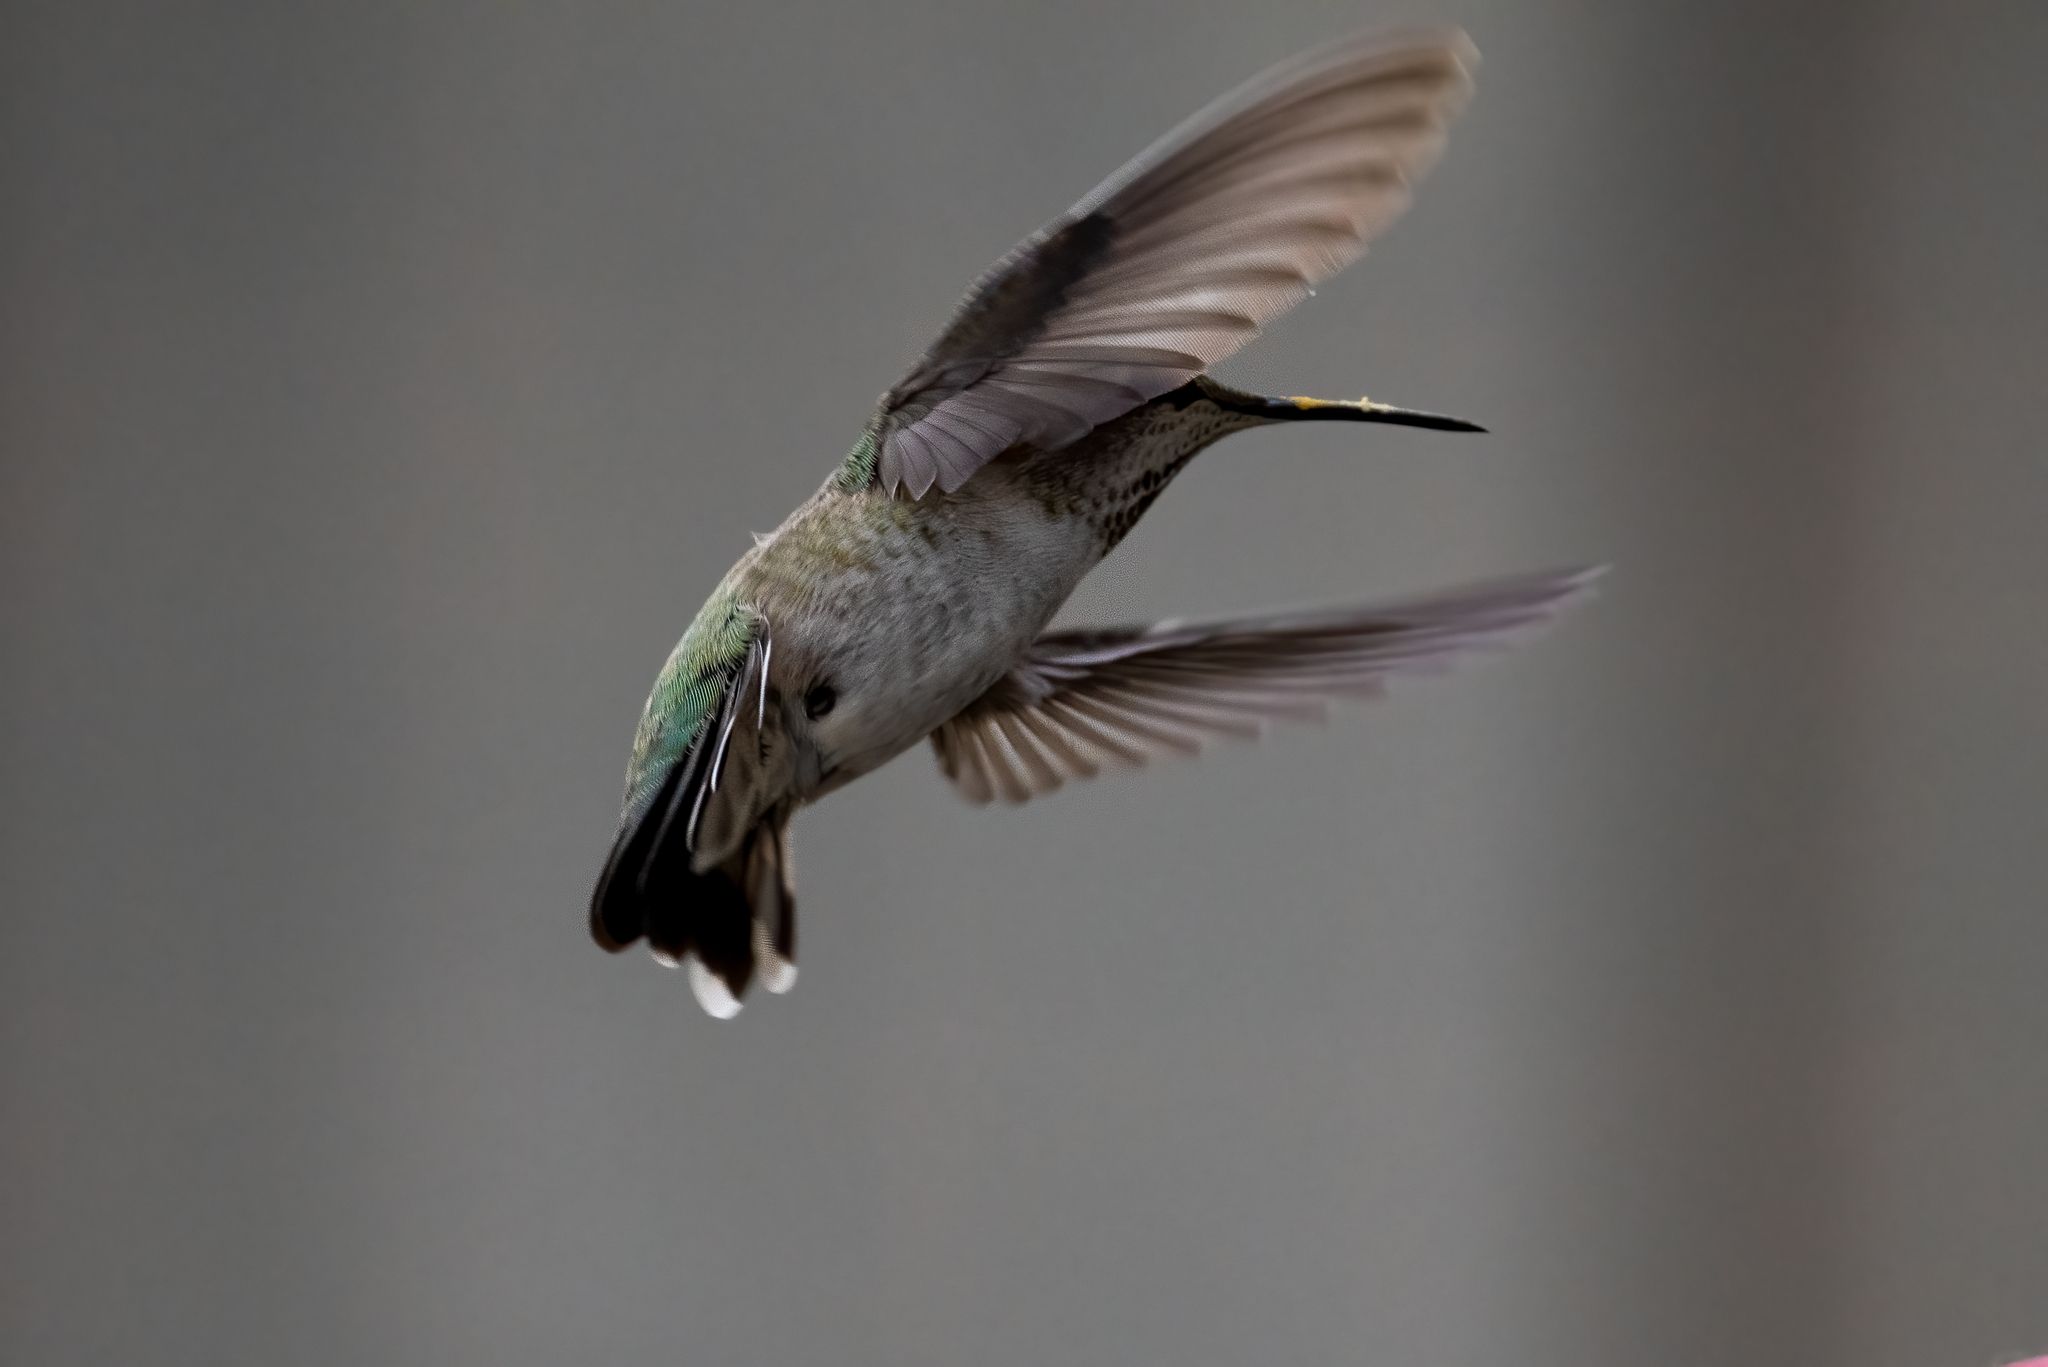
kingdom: Animalia
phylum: Chordata
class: Aves
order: Apodiformes
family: Trochilidae
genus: Calypte
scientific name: Calypte anna
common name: Anna's hummingbird
